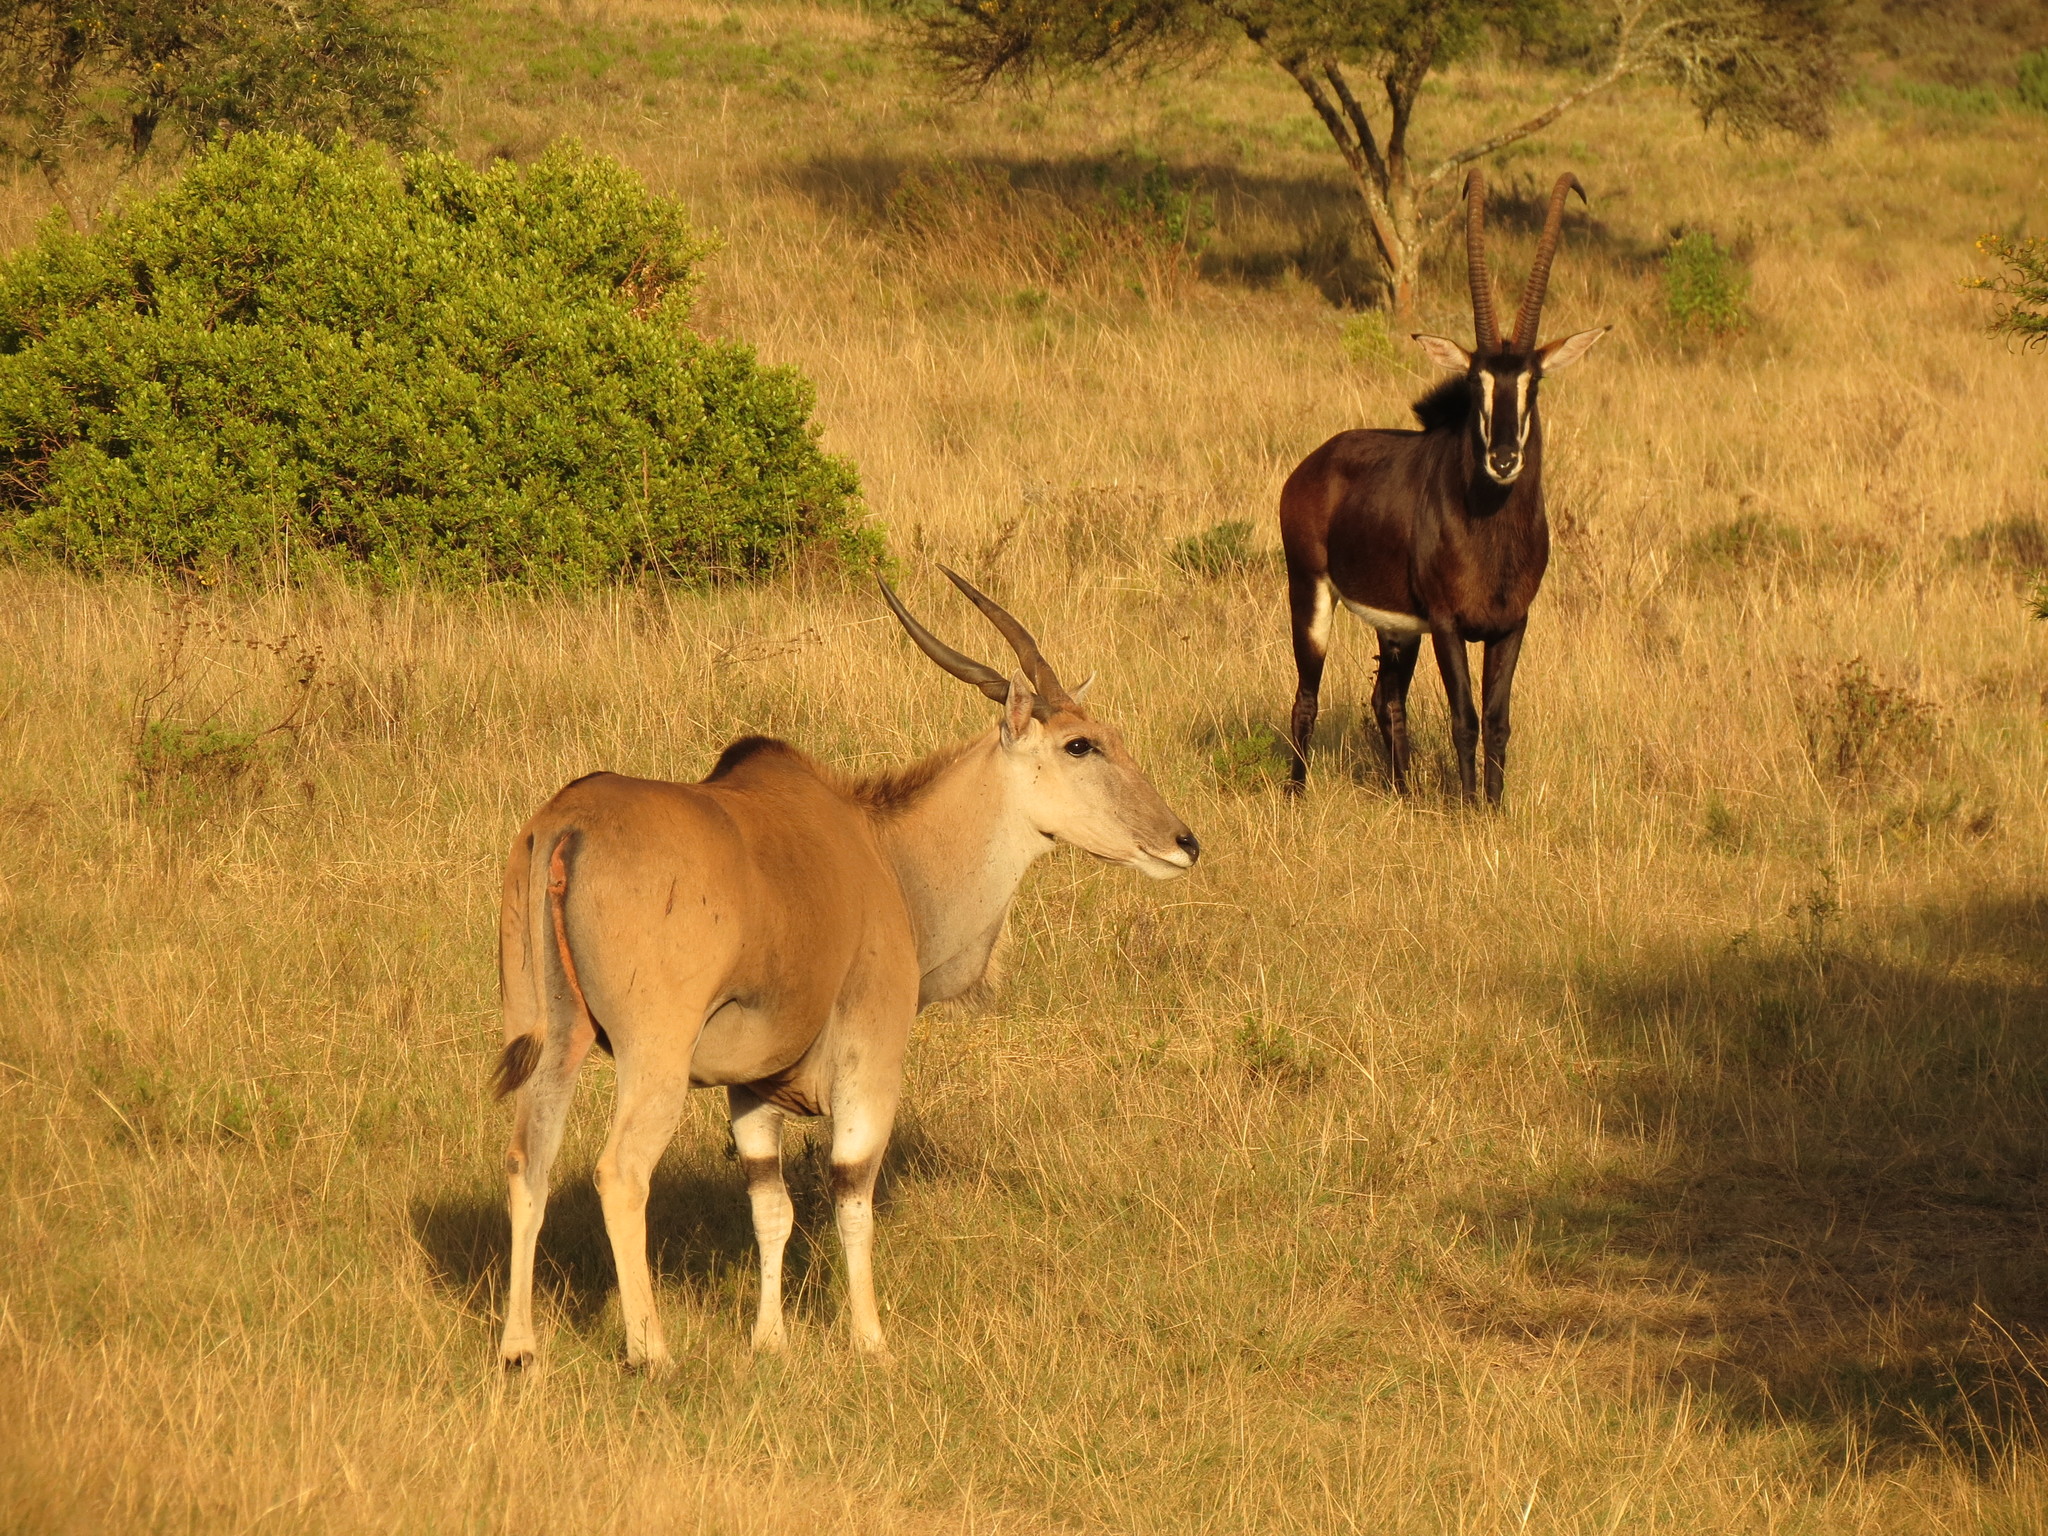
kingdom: Animalia
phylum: Chordata
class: Mammalia
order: Artiodactyla
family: Bovidae
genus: Taurotragus
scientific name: Taurotragus oryx
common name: Common eland
